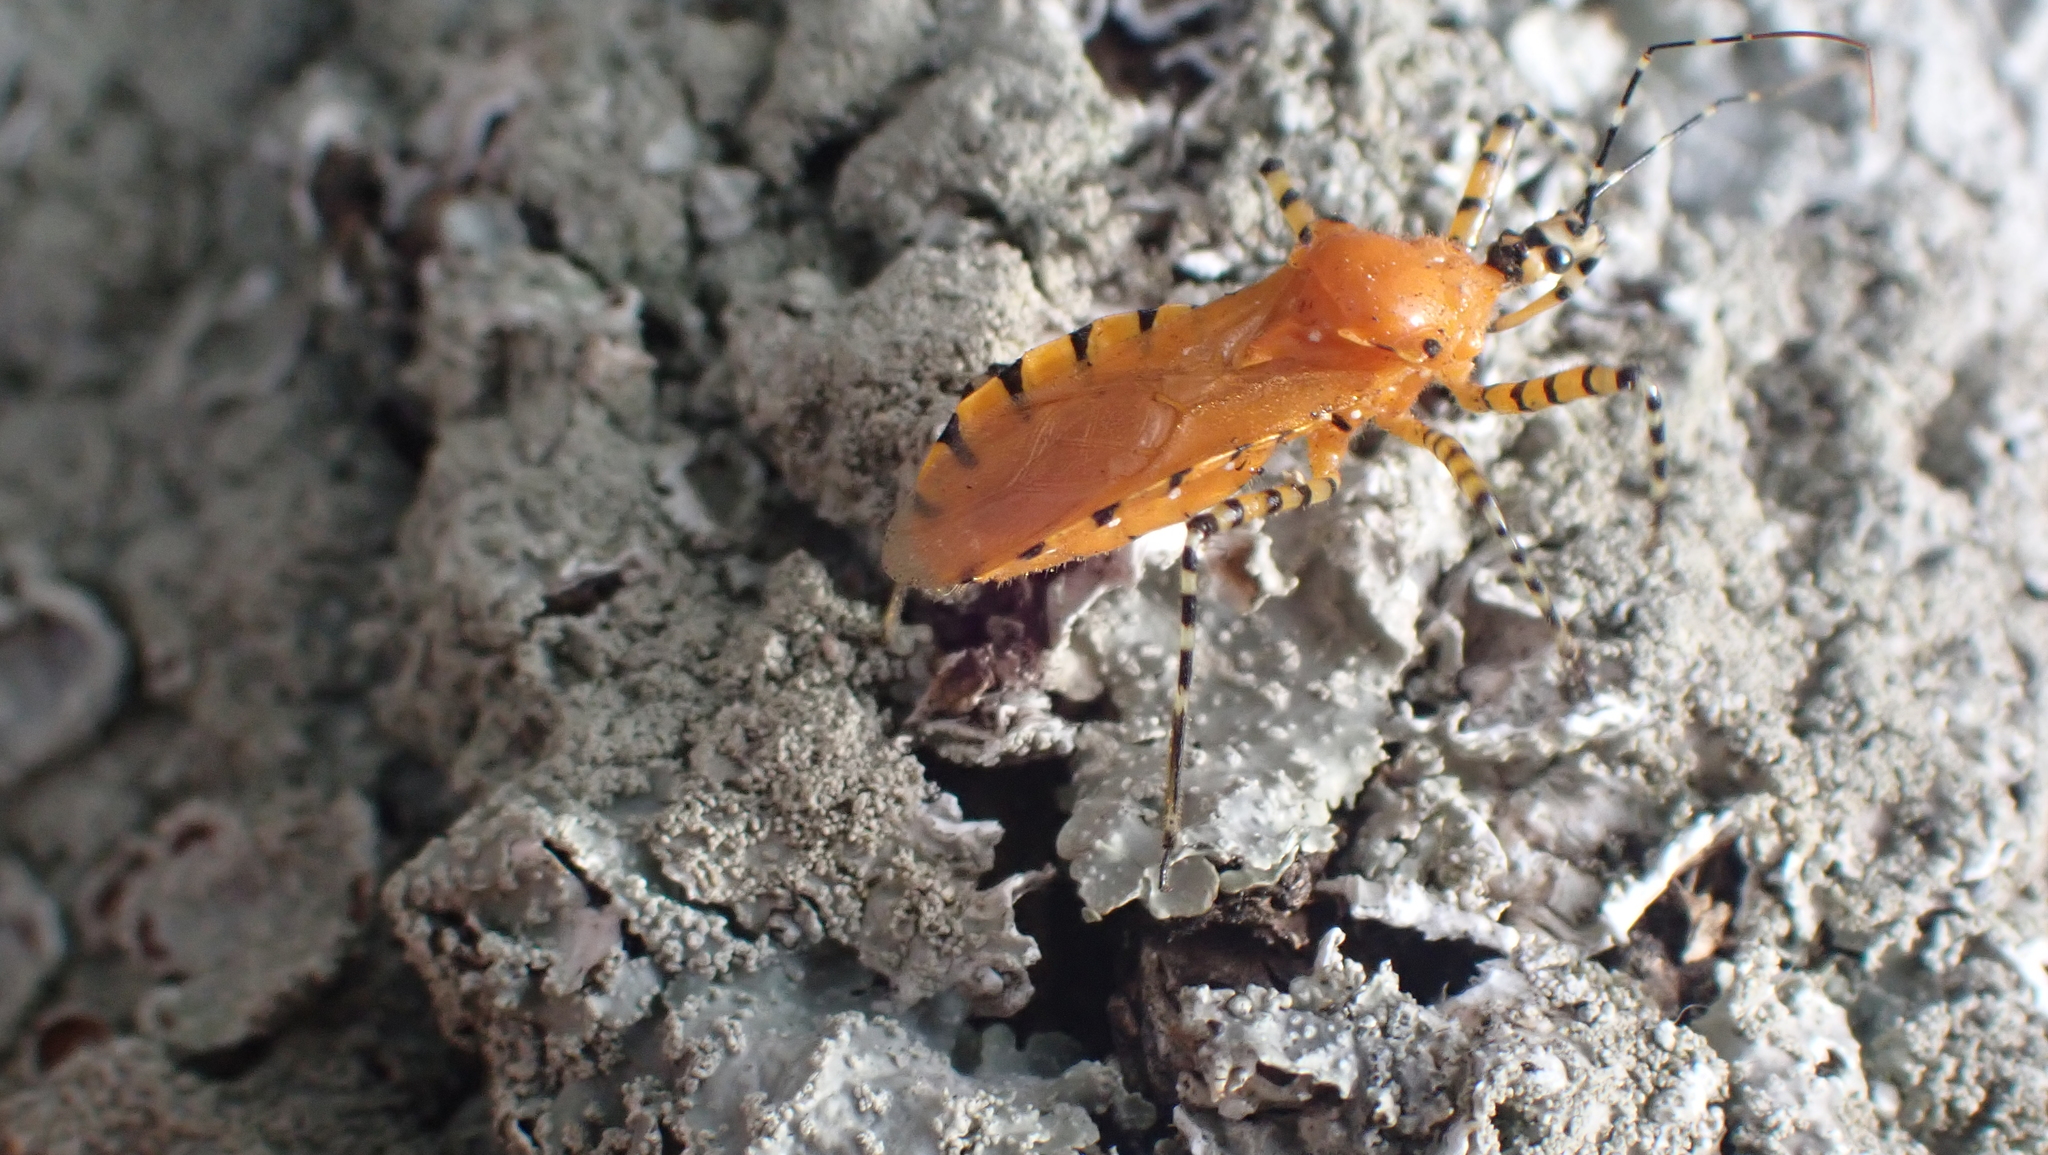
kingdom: Animalia
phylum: Arthropoda
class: Insecta
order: Hemiptera
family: Reduviidae
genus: Pselliopus
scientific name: Pselliopus barberi
